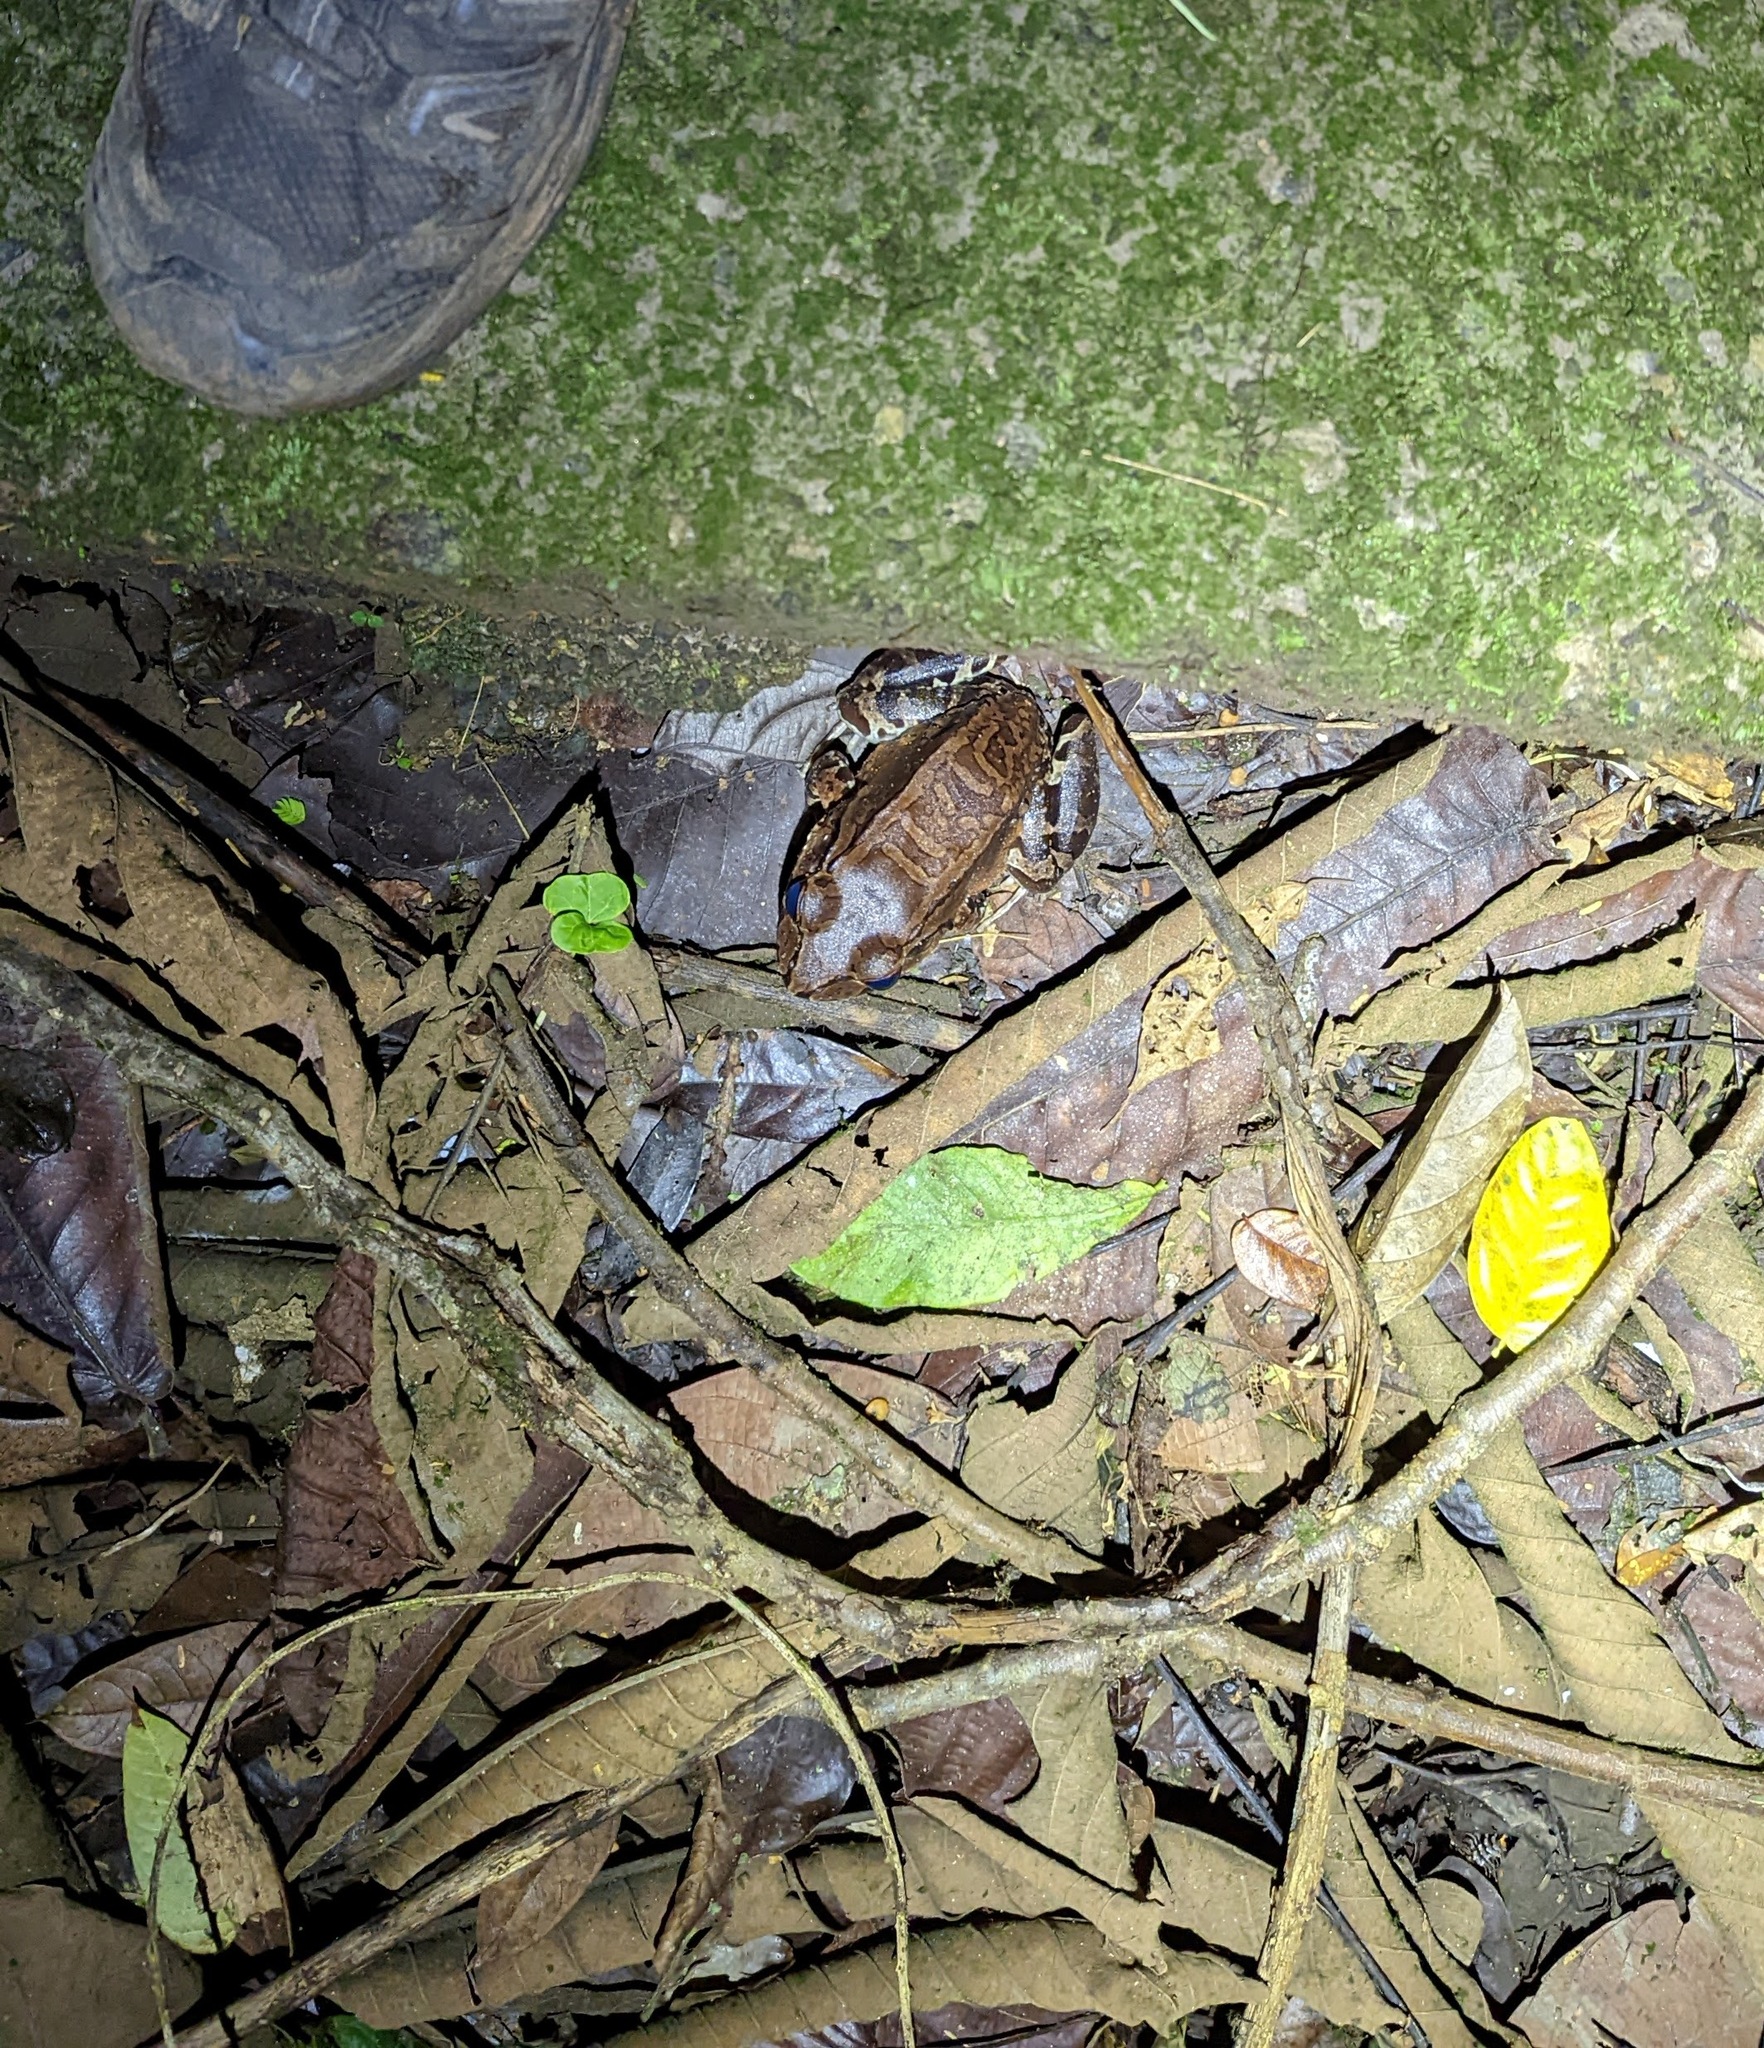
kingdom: Animalia
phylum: Chordata
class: Amphibia
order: Anura
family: Leptodactylidae
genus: Leptodactylus
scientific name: Leptodactylus savagei
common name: Savage's thin-toed frog
